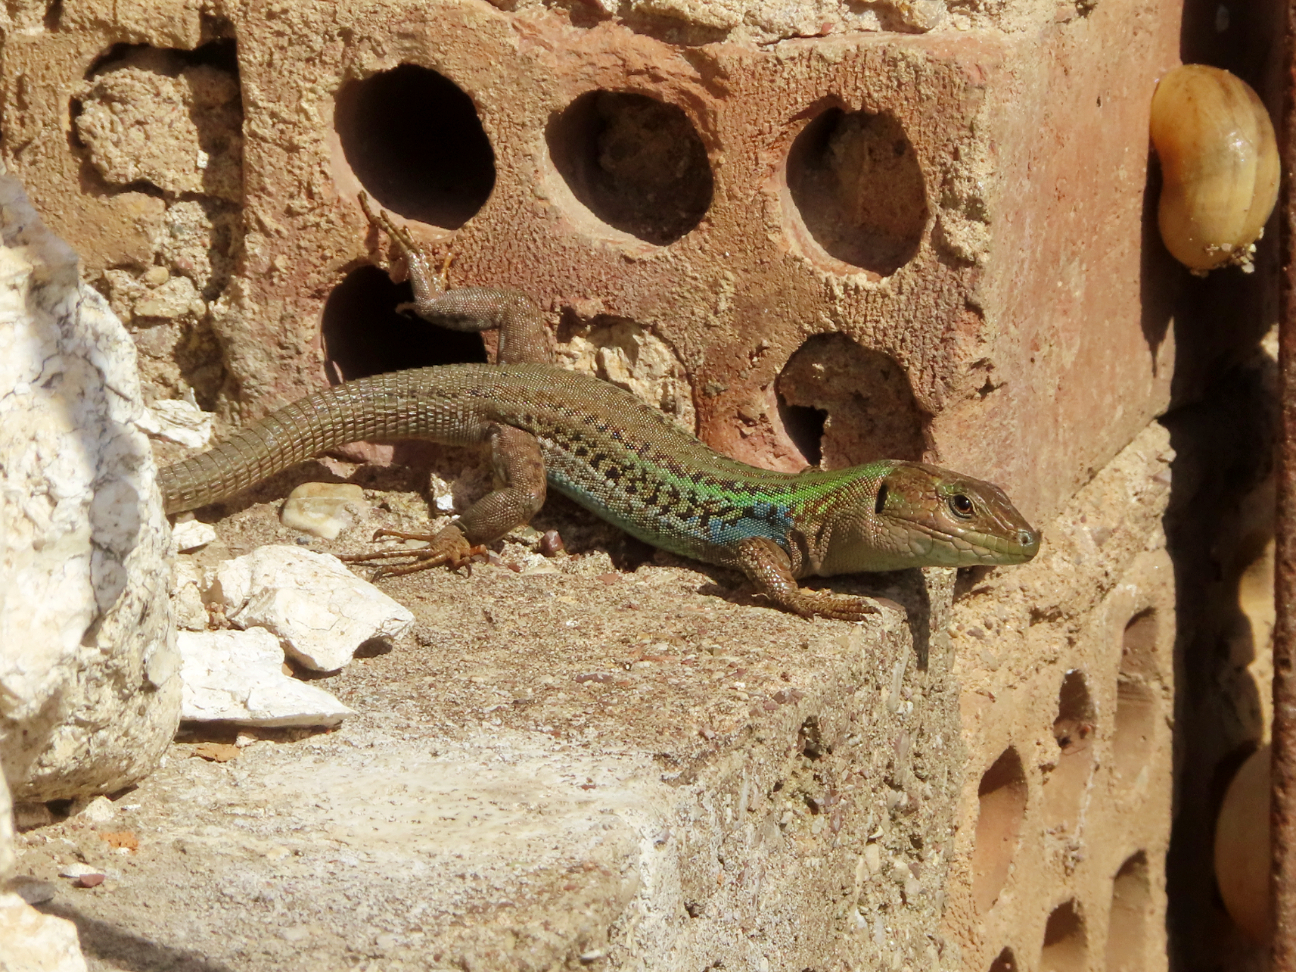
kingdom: Animalia
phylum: Chordata
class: Squamata
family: Lacertidae
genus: Podarcis
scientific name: Podarcis peloponnesiacus
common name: Peloponnese wall lizard
